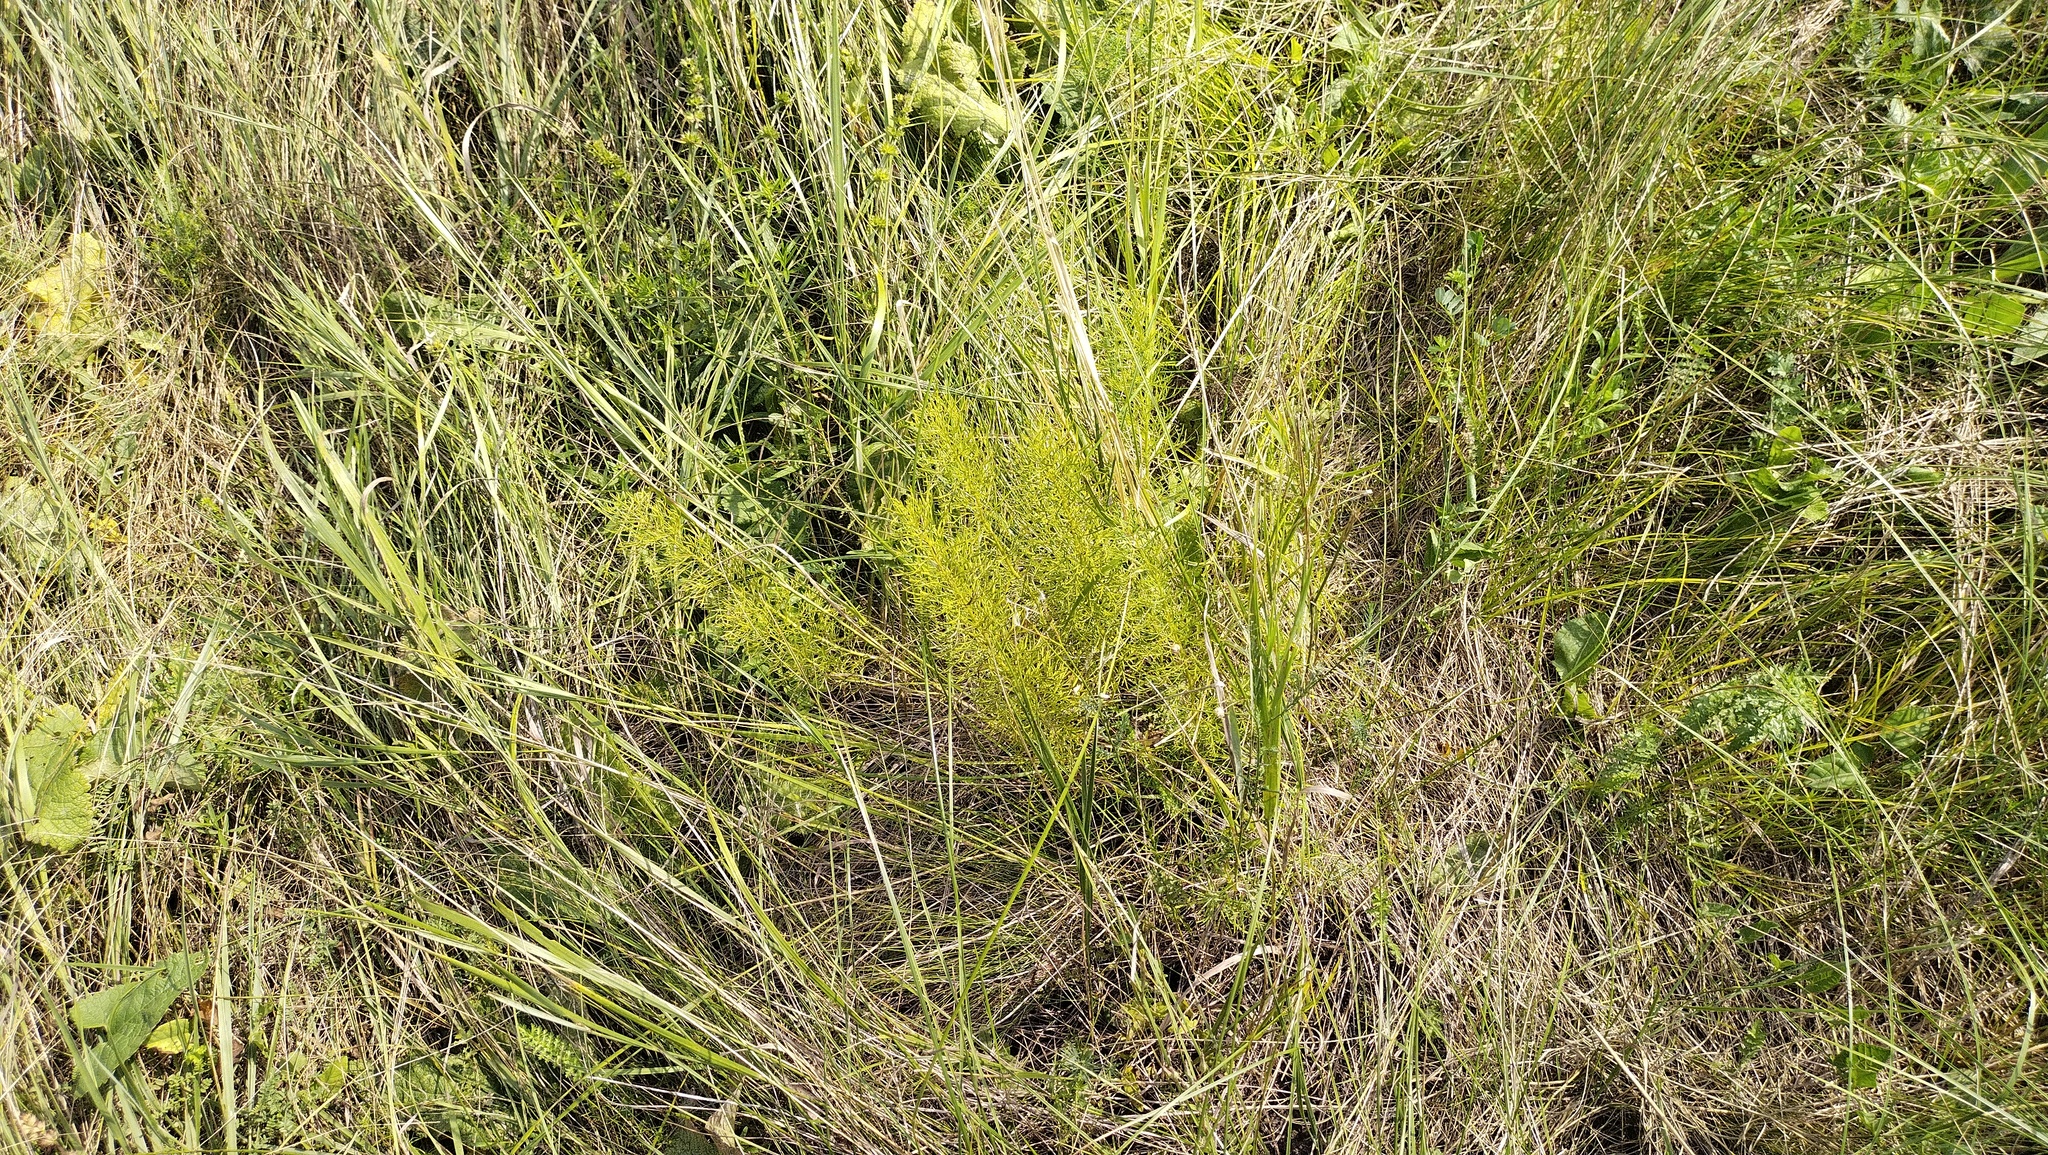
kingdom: Plantae
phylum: Tracheophyta
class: Magnoliopsida
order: Ranunculales
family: Ranunculaceae
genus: Adonis
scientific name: Adonis vernalis
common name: Yellow pheasants-eye
